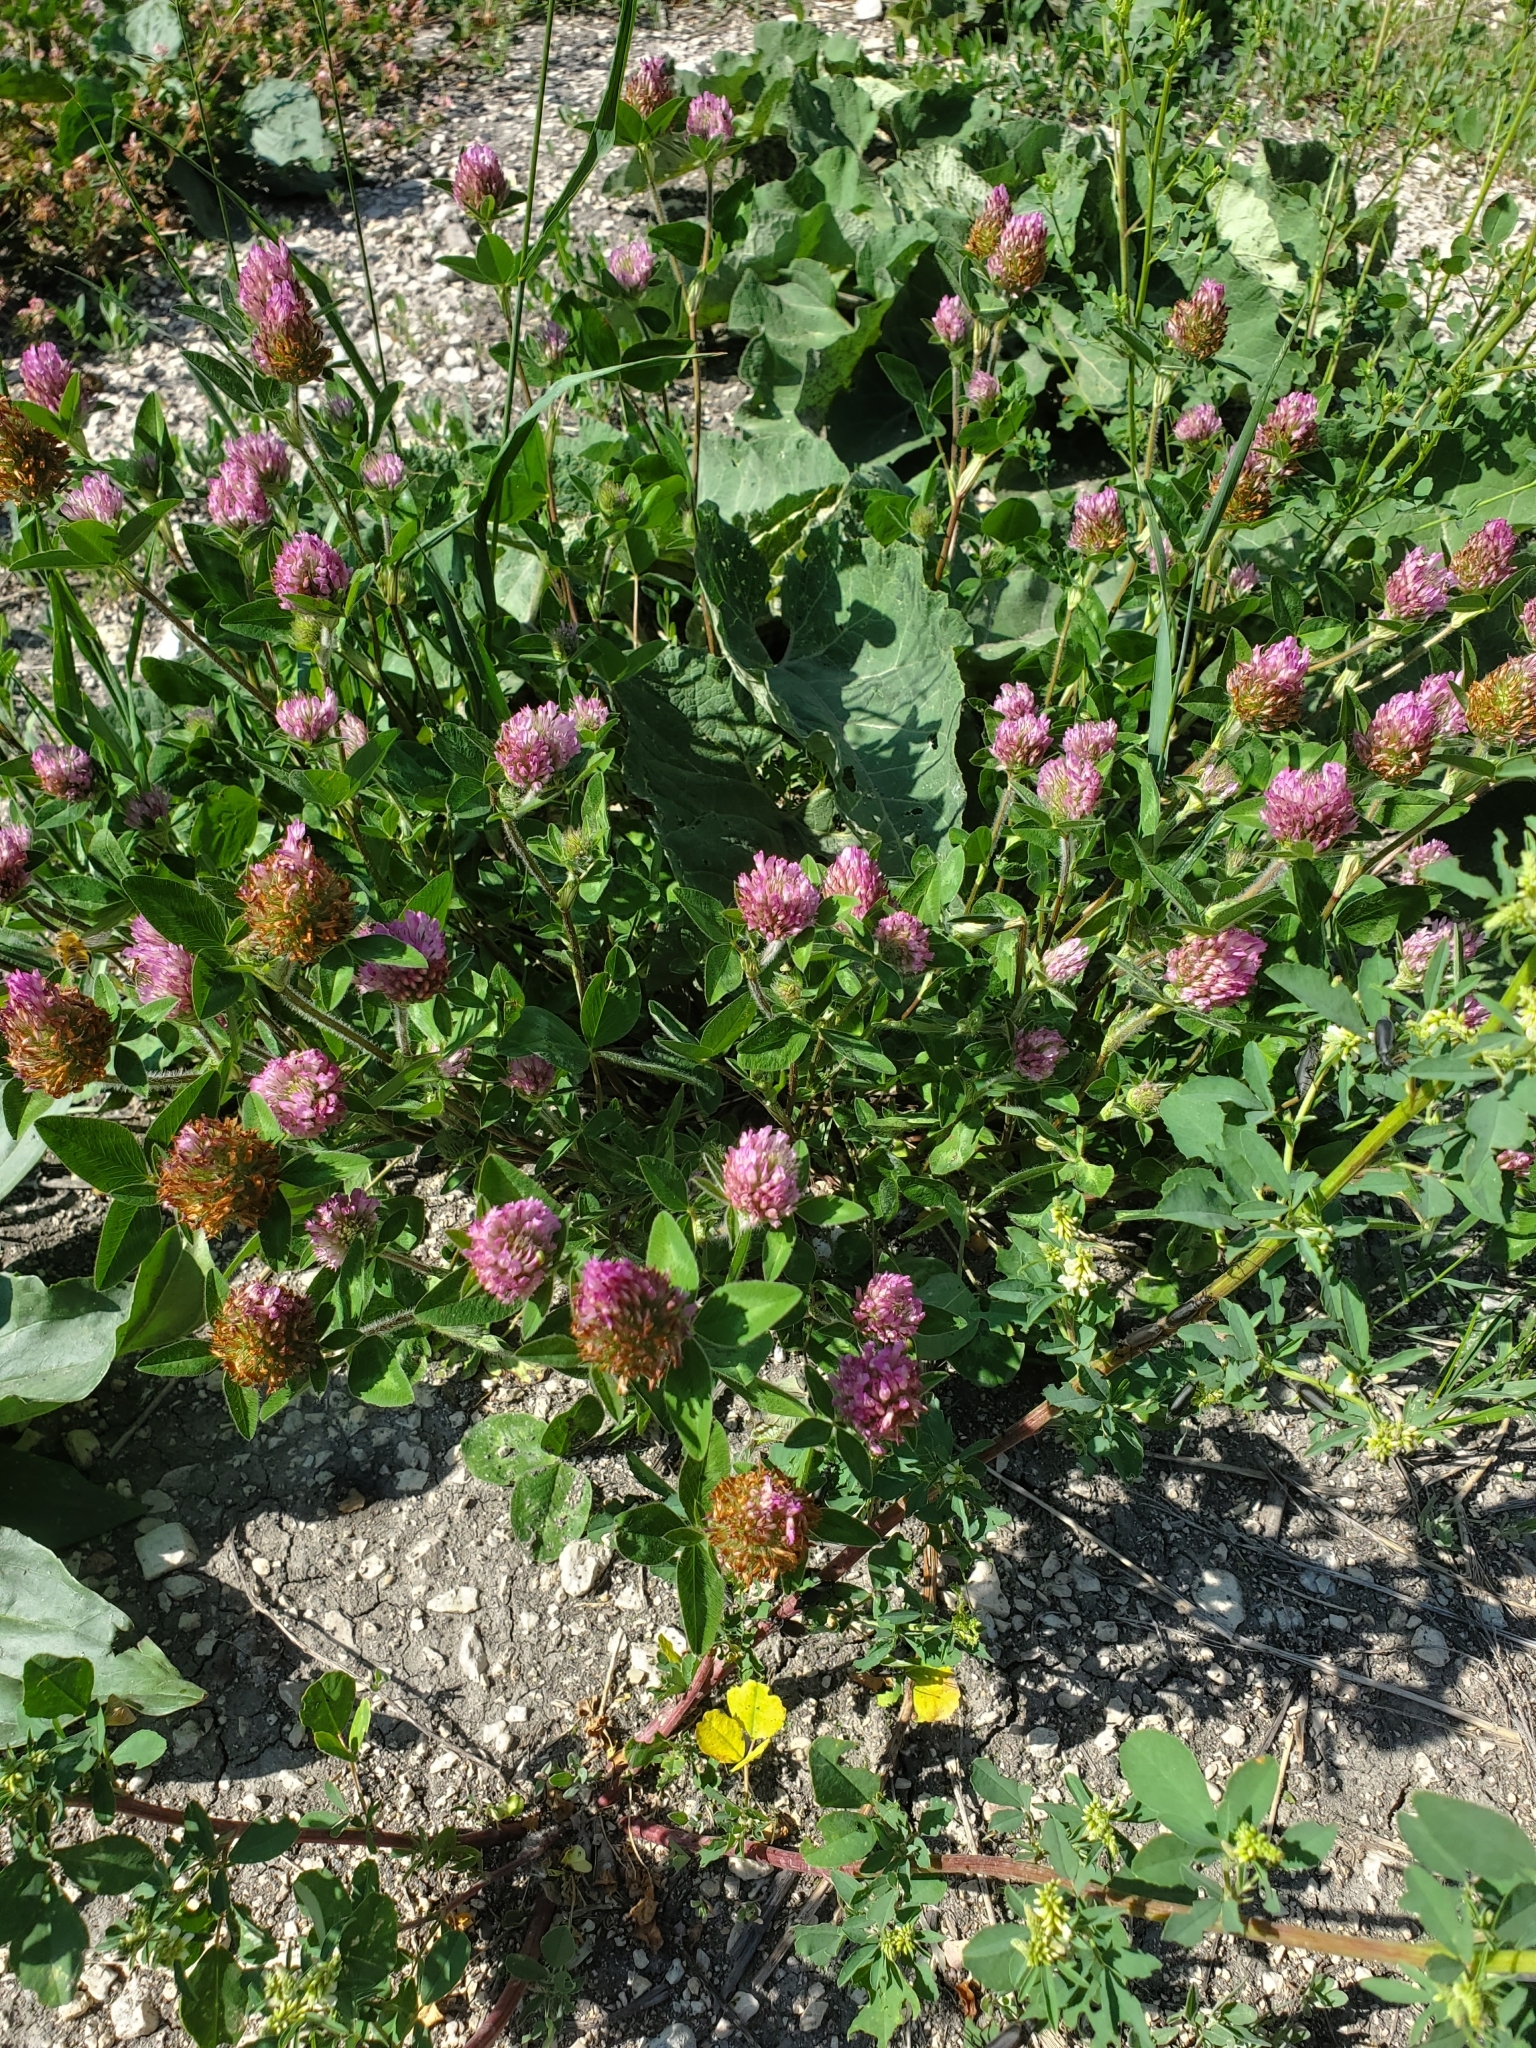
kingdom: Plantae
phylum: Tracheophyta
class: Magnoliopsida
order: Fabales
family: Fabaceae
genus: Trifolium
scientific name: Trifolium pratense
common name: Red clover
